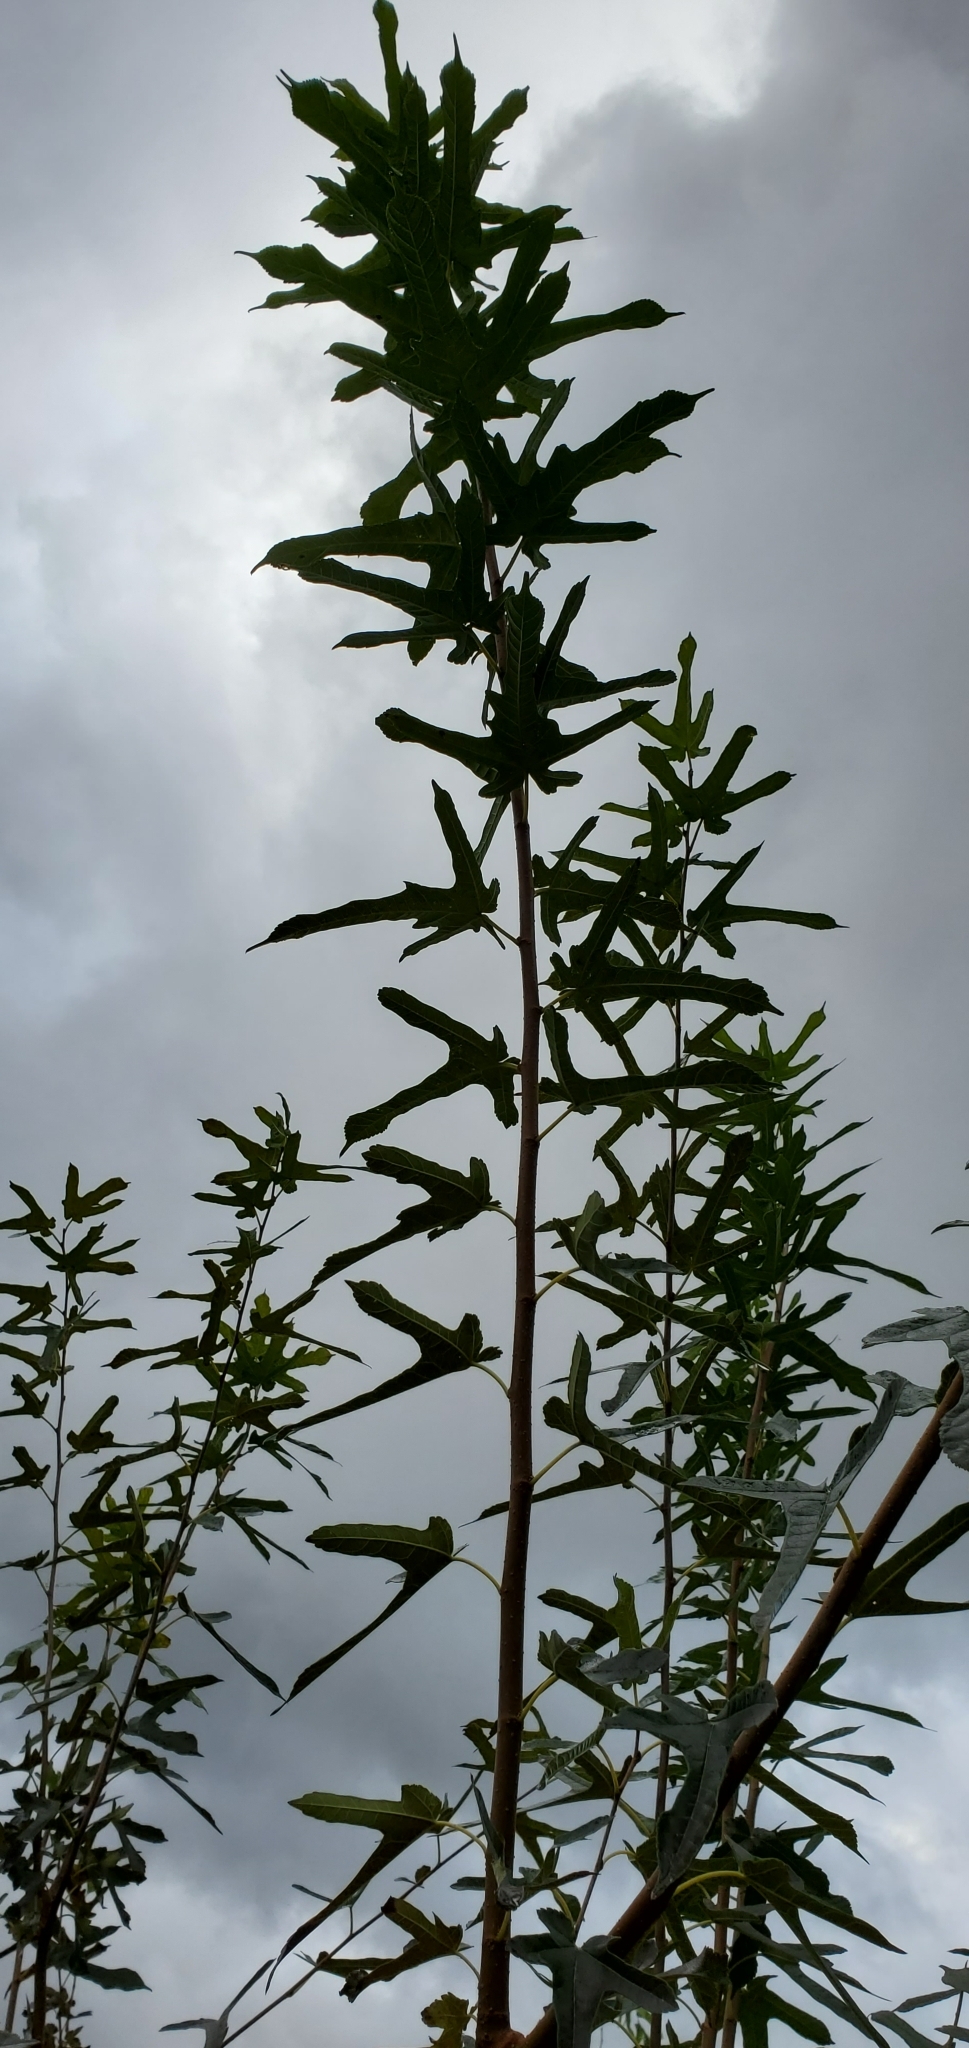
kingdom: Plantae
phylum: Tracheophyta
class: Magnoliopsida
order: Rosales
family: Moraceae
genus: Morus
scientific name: Morus indica
